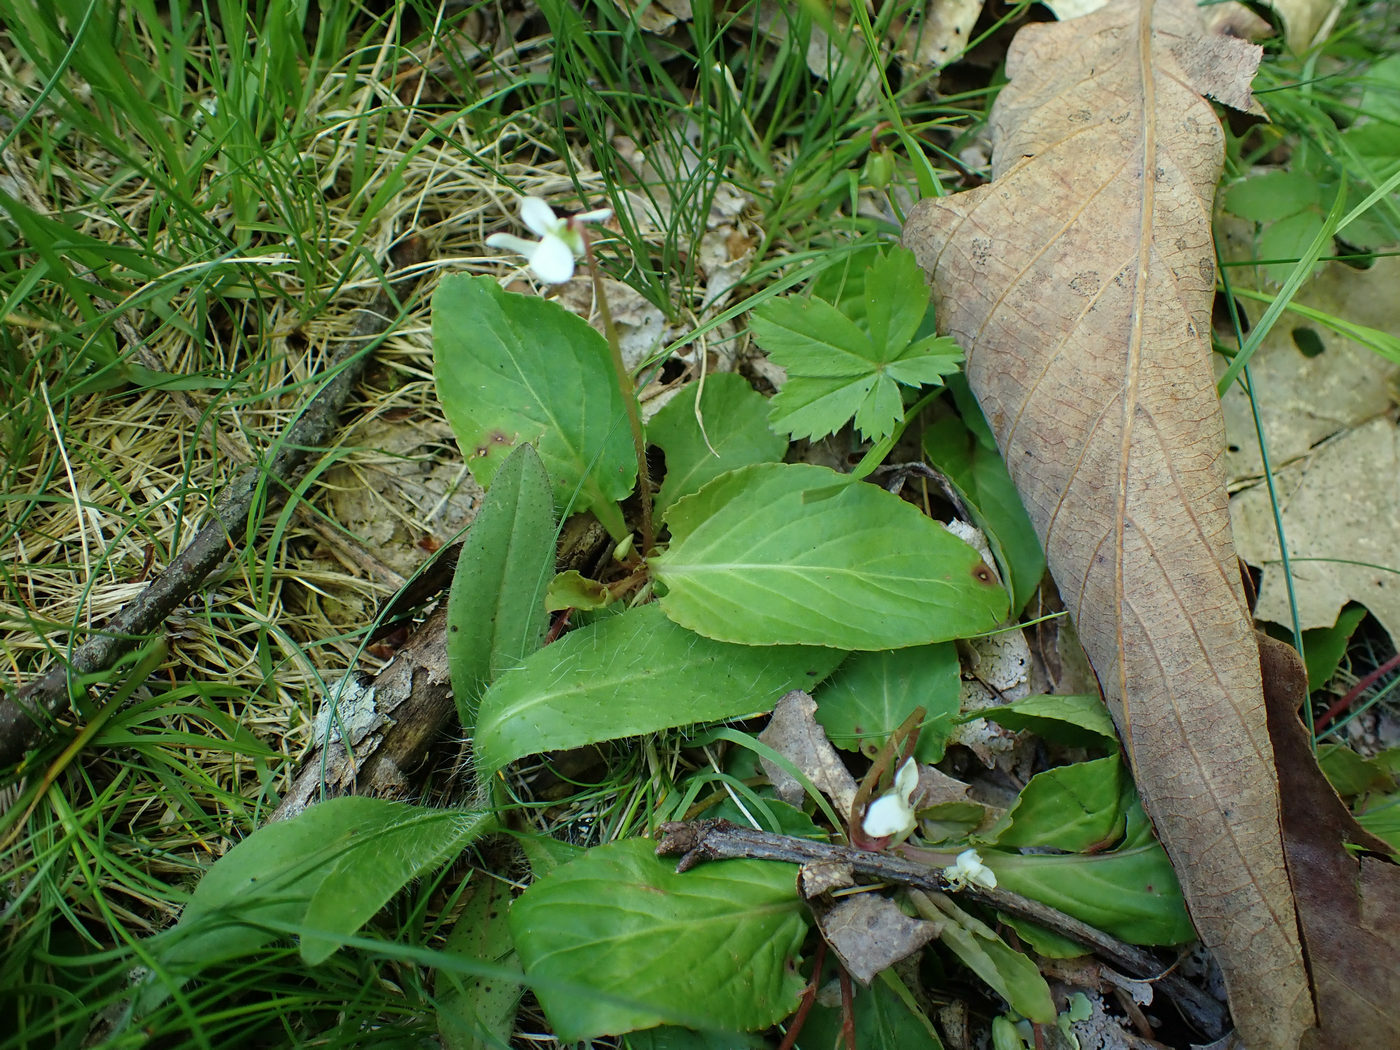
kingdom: Plantae
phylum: Tracheophyta
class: Magnoliopsida
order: Malpighiales
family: Violaceae
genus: Viola
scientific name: Viola primulifolia
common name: Primrose-leaf violet
